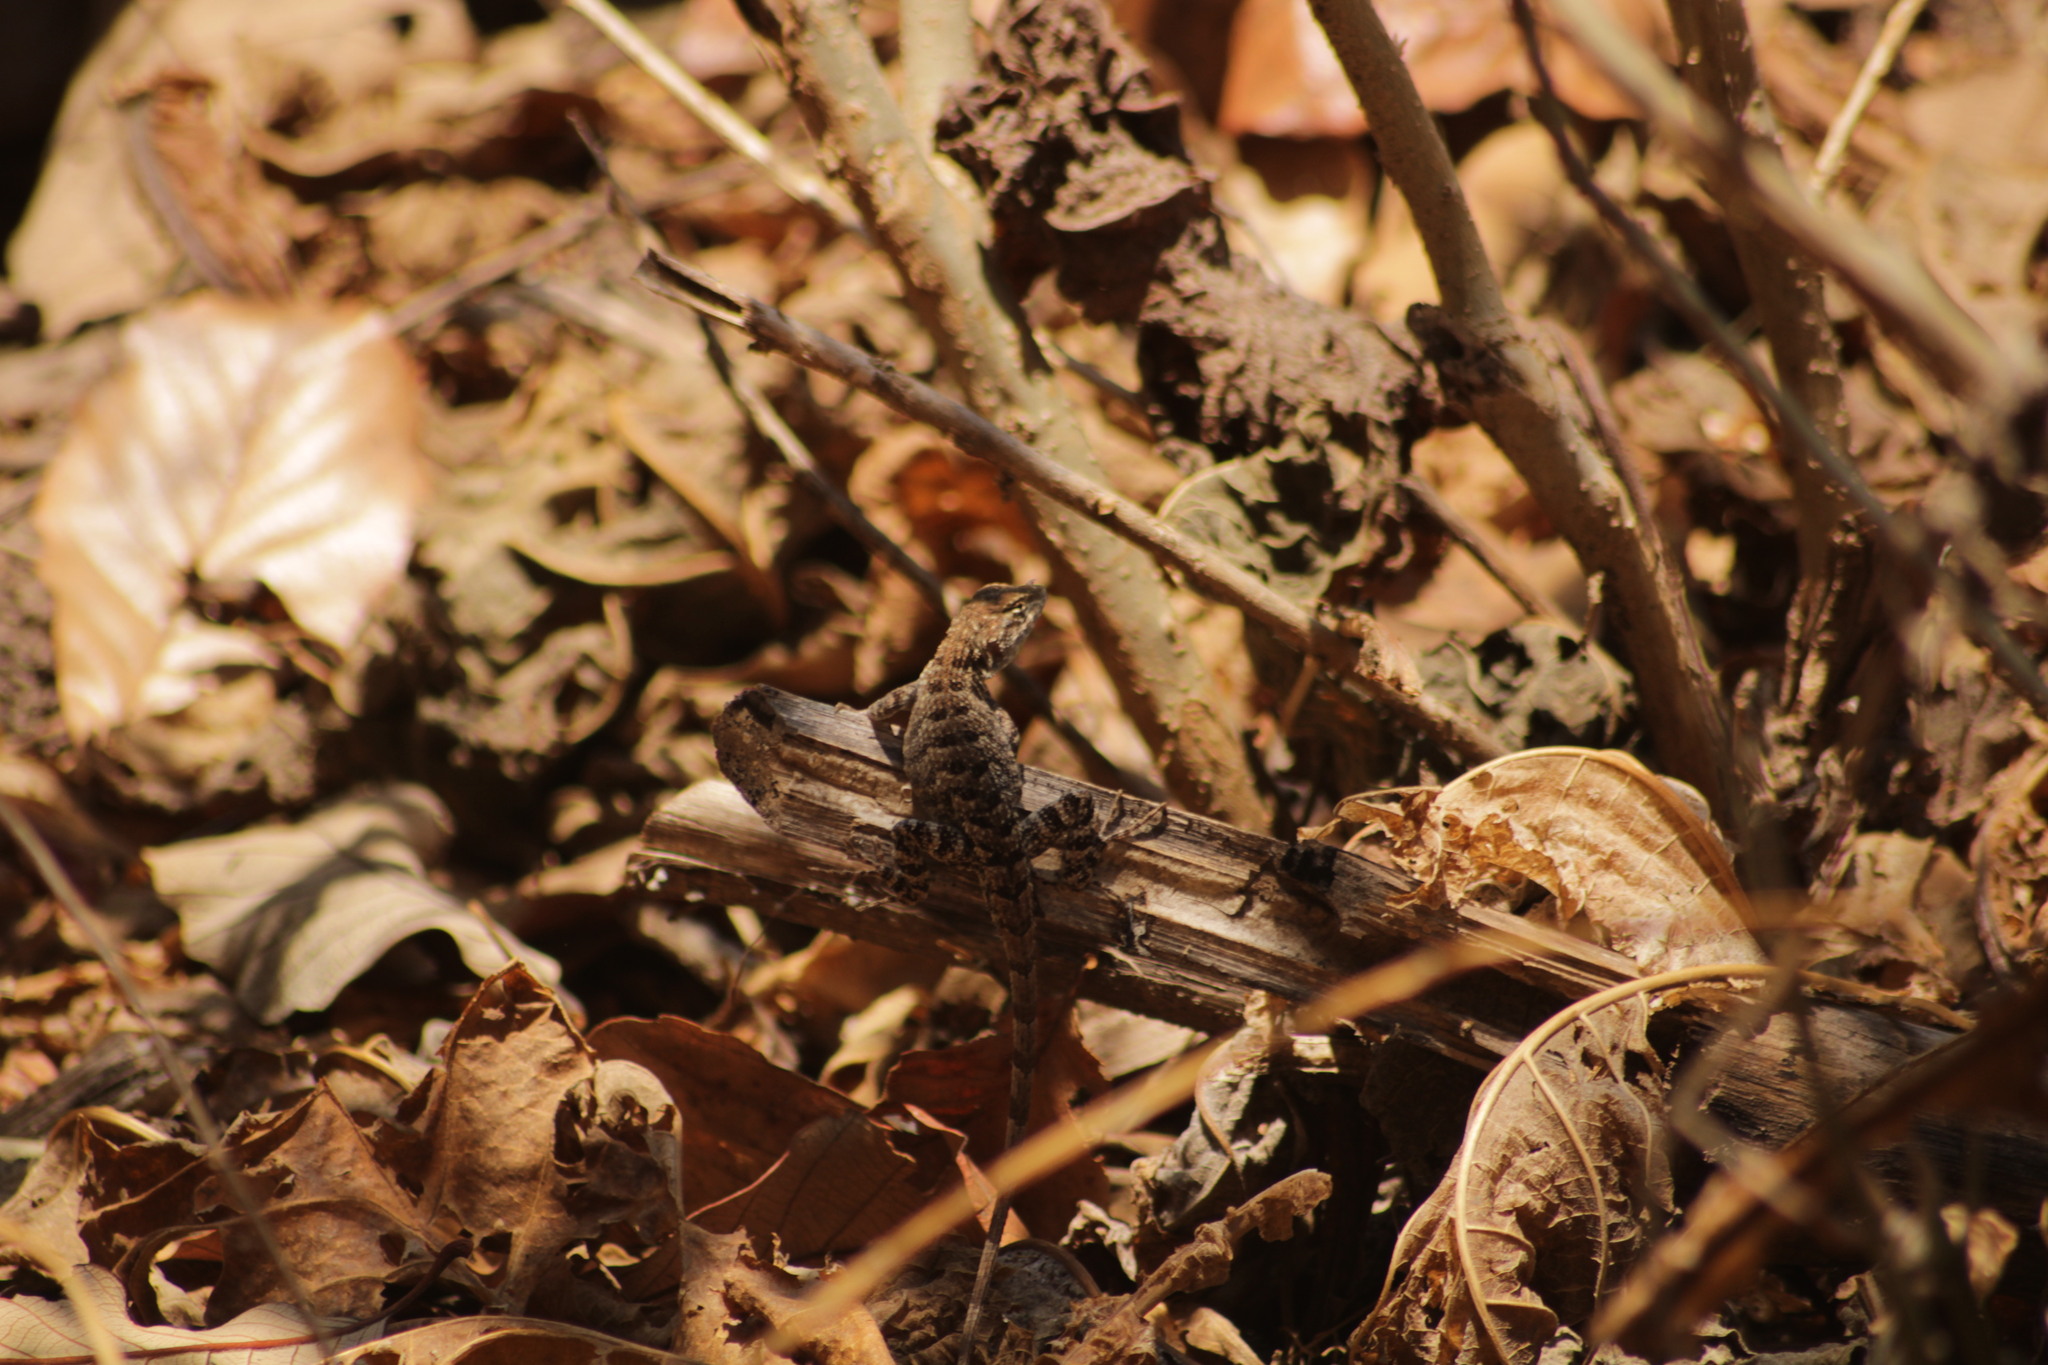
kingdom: Animalia
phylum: Chordata
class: Squamata
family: Phrynosomatidae
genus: Sceloporus
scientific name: Sceloporus utiformis
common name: Antesator
